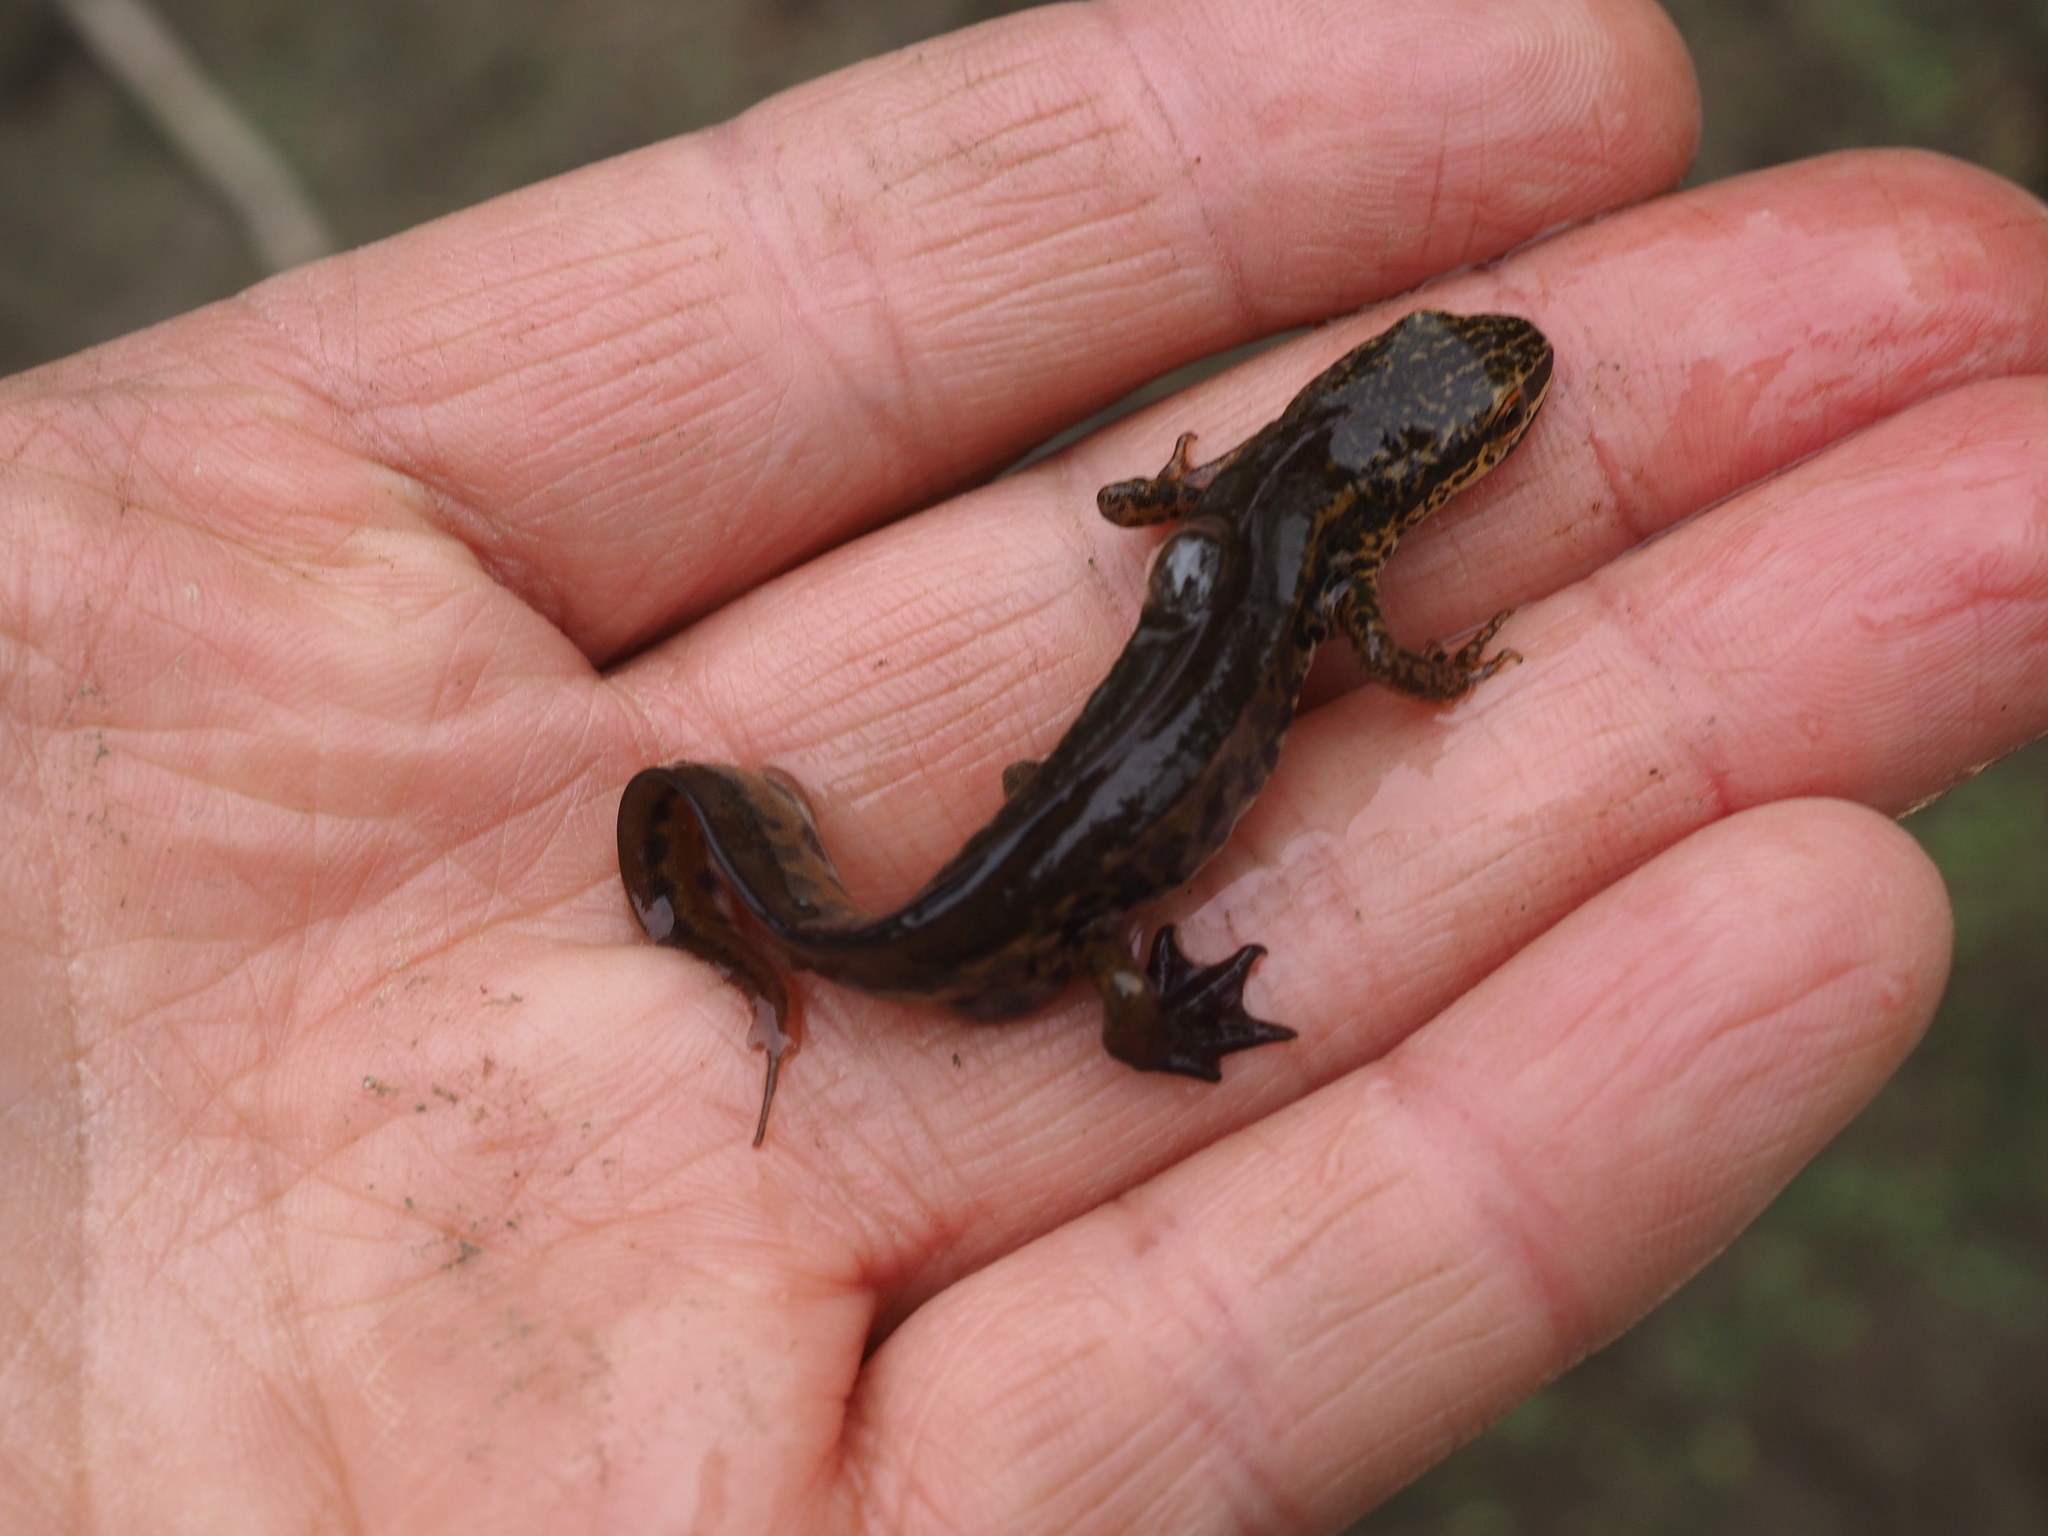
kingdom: Animalia
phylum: Chordata
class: Amphibia
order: Caudata
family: Salamandridae
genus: Lissotriton
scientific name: Lissotriton helveticus
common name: Palmate newt
